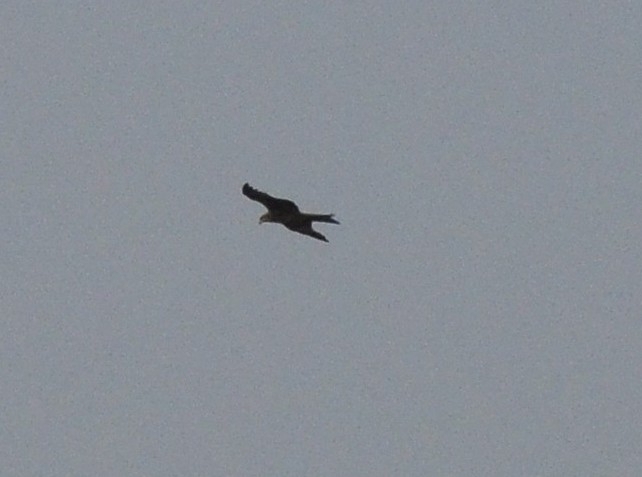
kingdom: Animalia
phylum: Chordata
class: Aves
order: Accipitriformes
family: Accipitridae
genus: Milvus
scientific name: Milvus migrans
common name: Black kite
